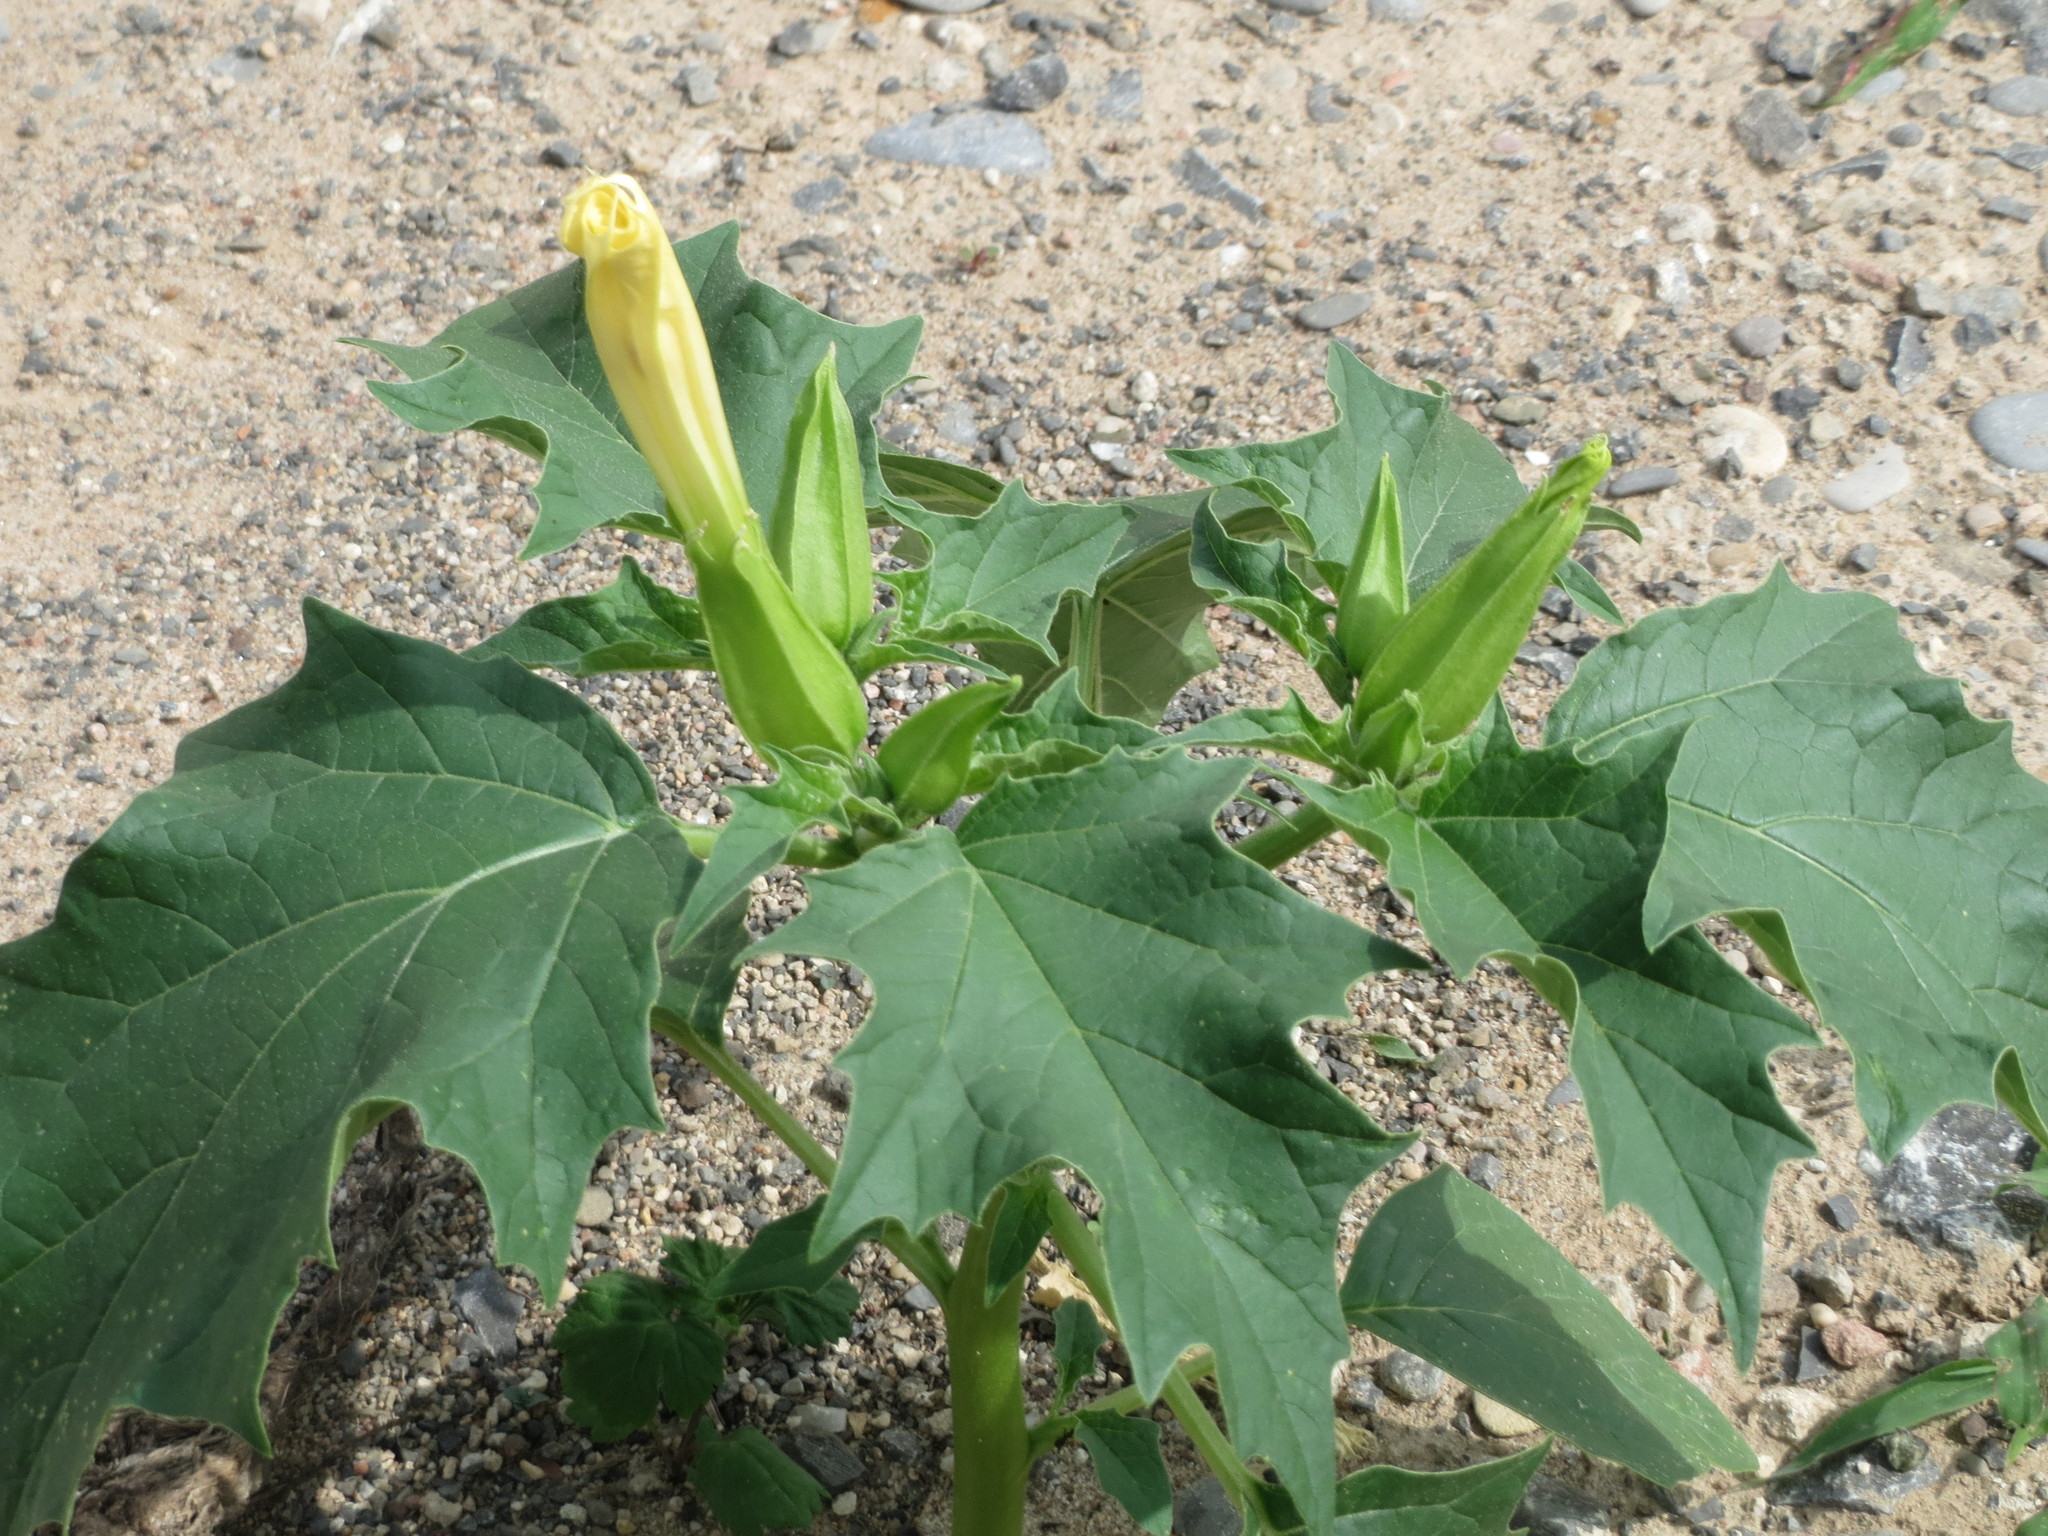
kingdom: Plantae
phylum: Tracheophyta
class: Magnoliopsida
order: Solanales
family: Solanaceae
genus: Datura
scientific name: Datura stramonium
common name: Thorn-apple
